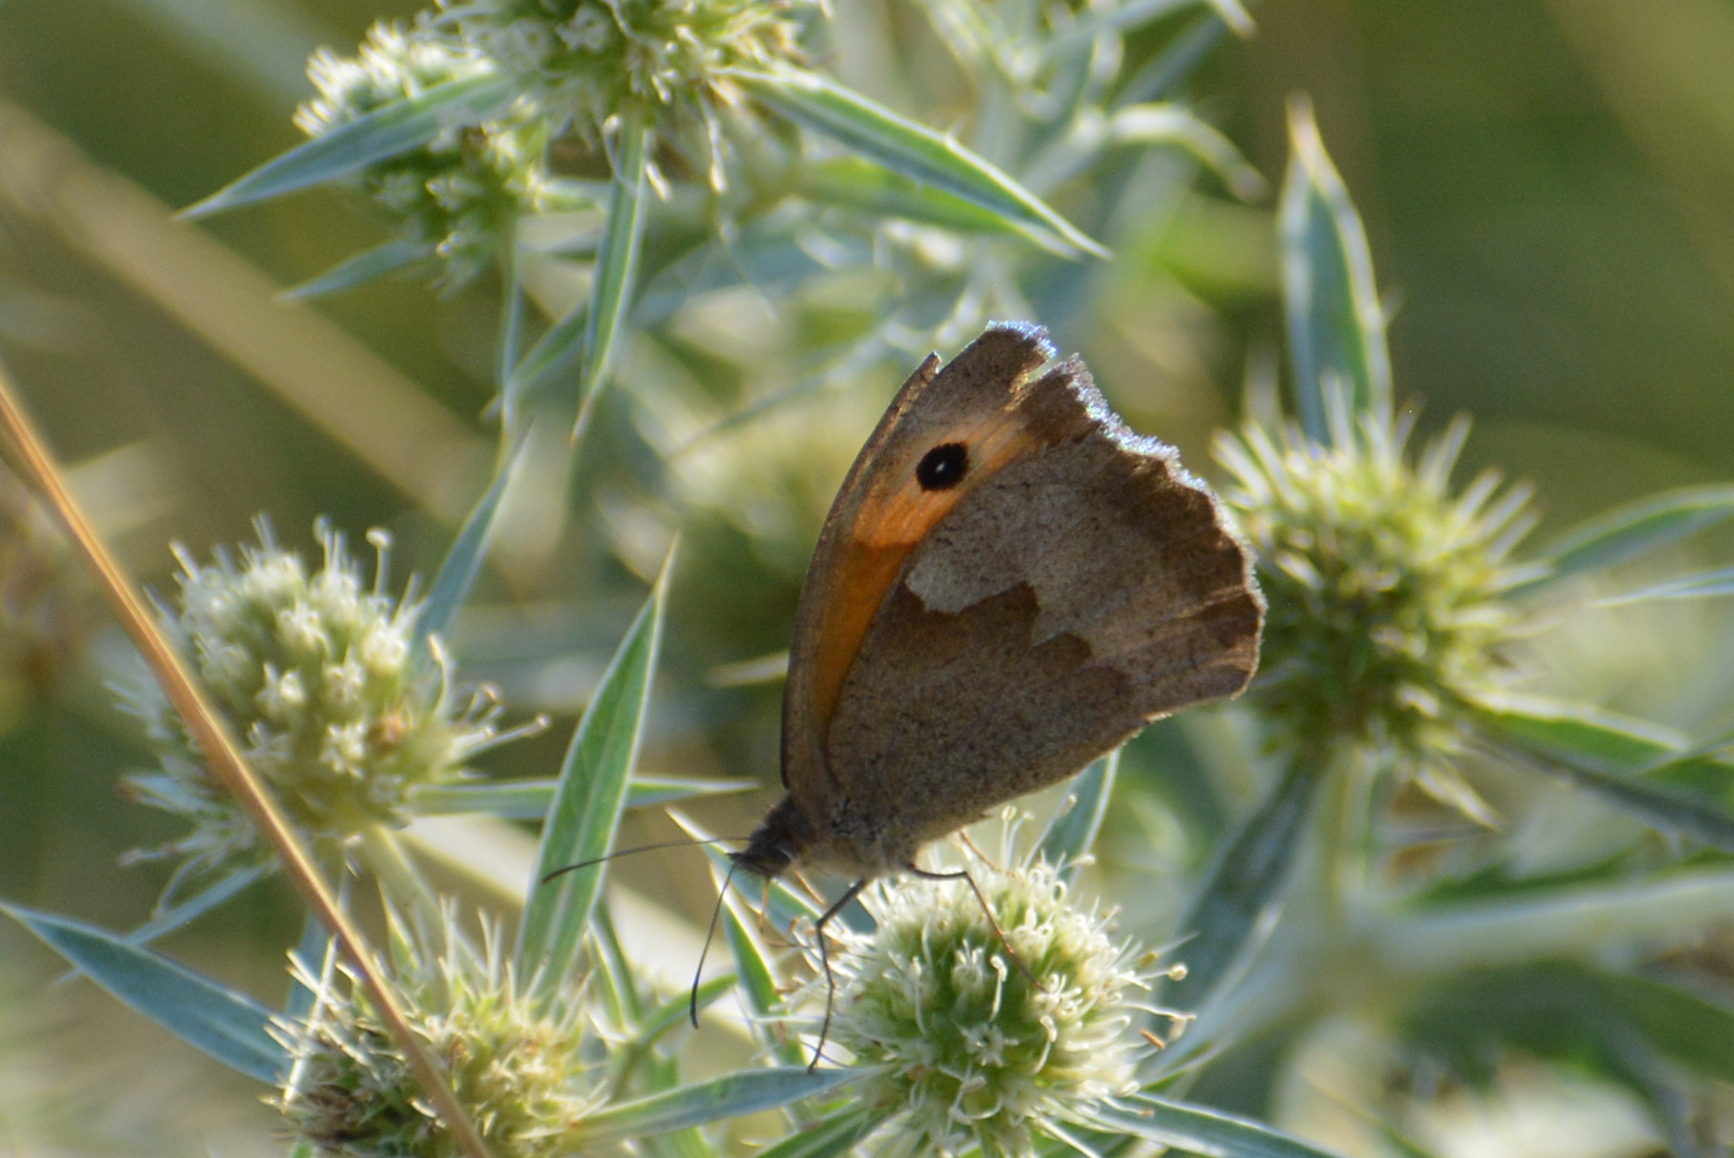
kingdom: Animalia
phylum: Arthropoda
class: Insecta
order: Lepidoptera
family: Nymphalidae
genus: Maniola
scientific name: Maniola jurtina
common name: Meadow brown
